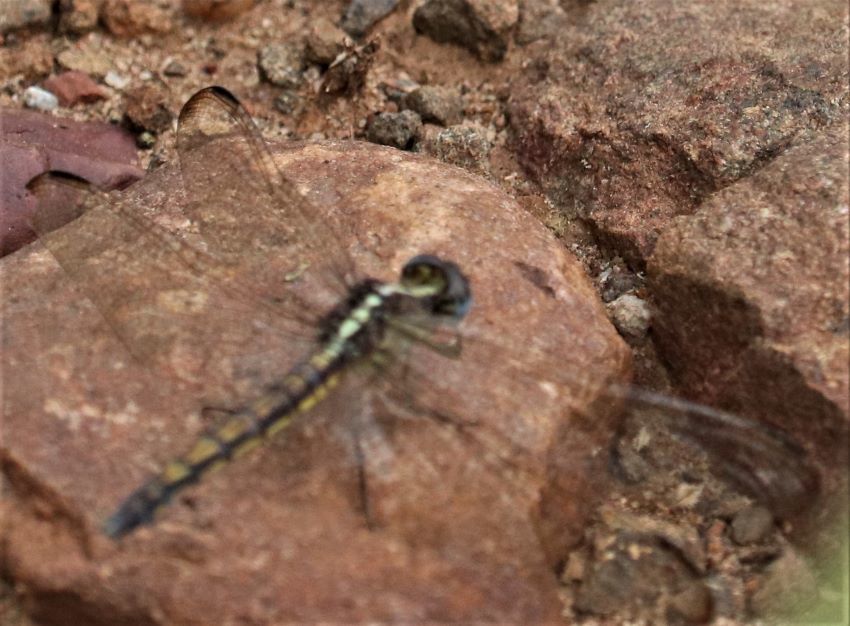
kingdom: Animalia
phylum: Arthropoda
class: Insecta
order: Odonata
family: Libellulidae
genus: Nesciothemis
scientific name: Nesciothemis farinosa
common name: Eastern blacktail
